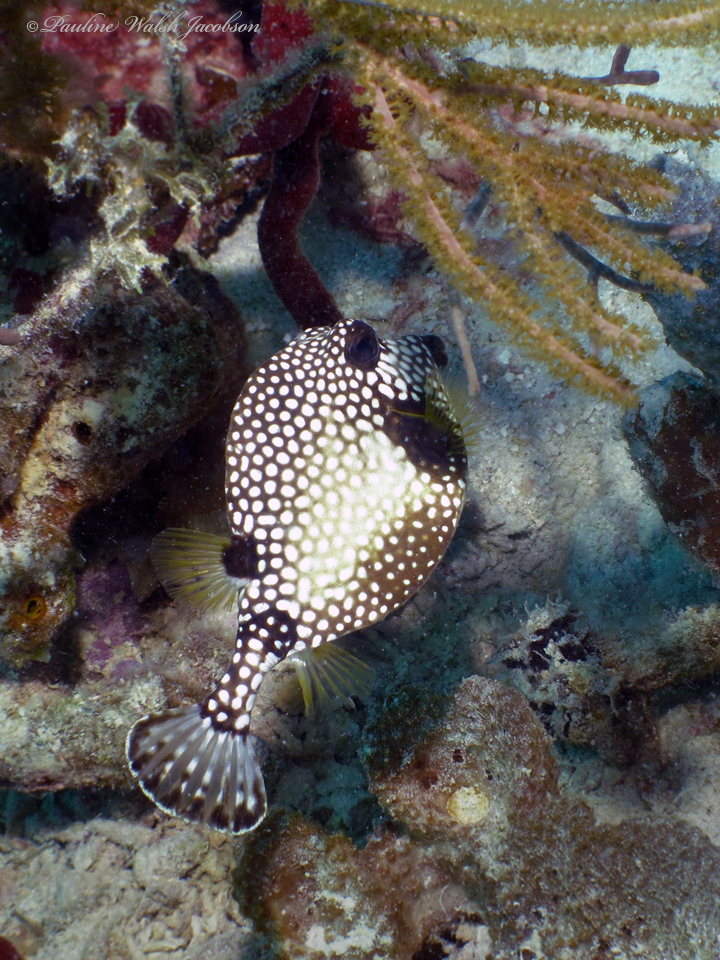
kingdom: Animalia
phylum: Chordata
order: Tetraodontiformes
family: Ostraciidae
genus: Lactophrys
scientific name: Lactophrys triqueter
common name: Smooth trunkfish
